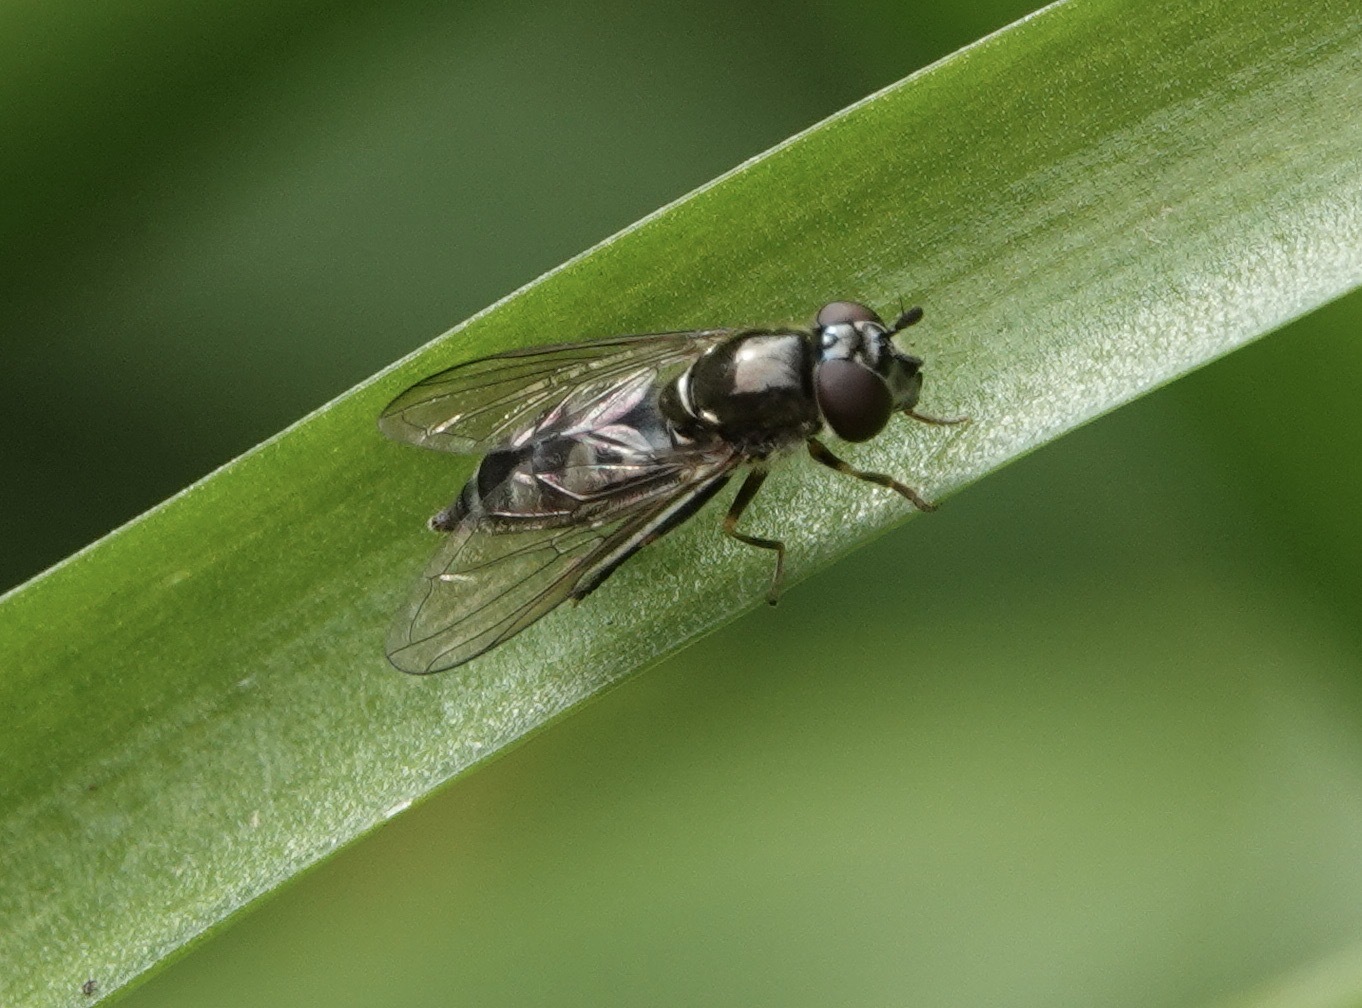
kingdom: Animalia
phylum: Arthropoda
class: Insecta
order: Diptera
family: Syrphidae
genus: Platycheirus
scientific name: Platycheirus albimanus
